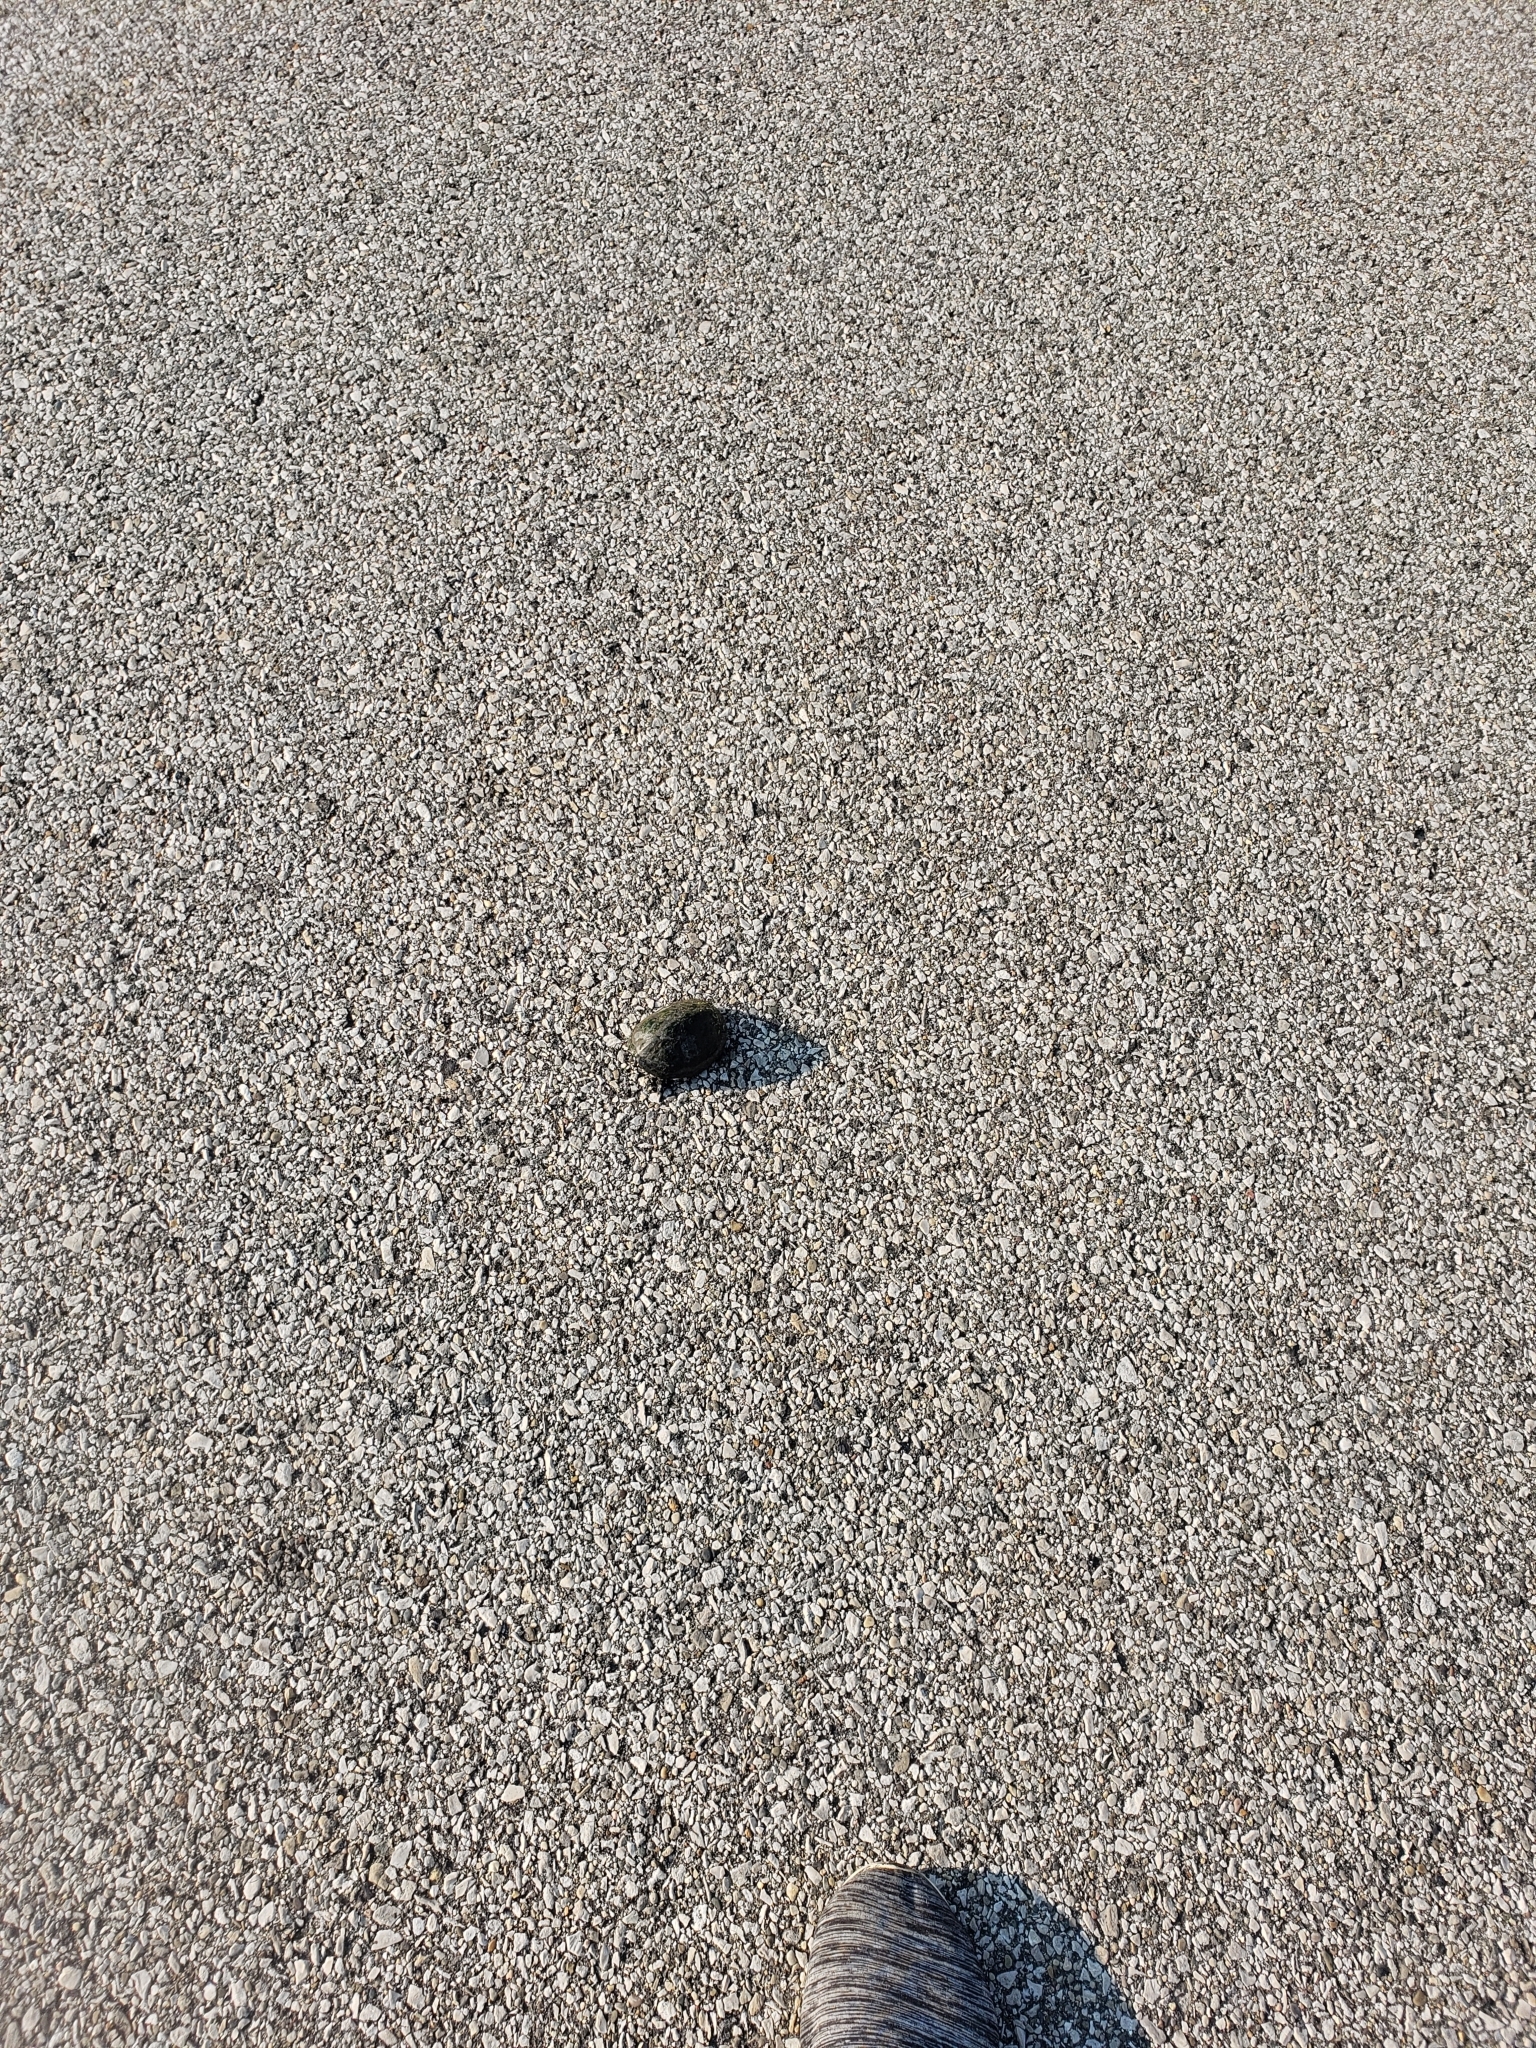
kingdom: Animalia
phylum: Chordata
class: Testudines
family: Kinosternidae
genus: Sternotherus
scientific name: Sternotherus odoratus
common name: Common musk turtle
